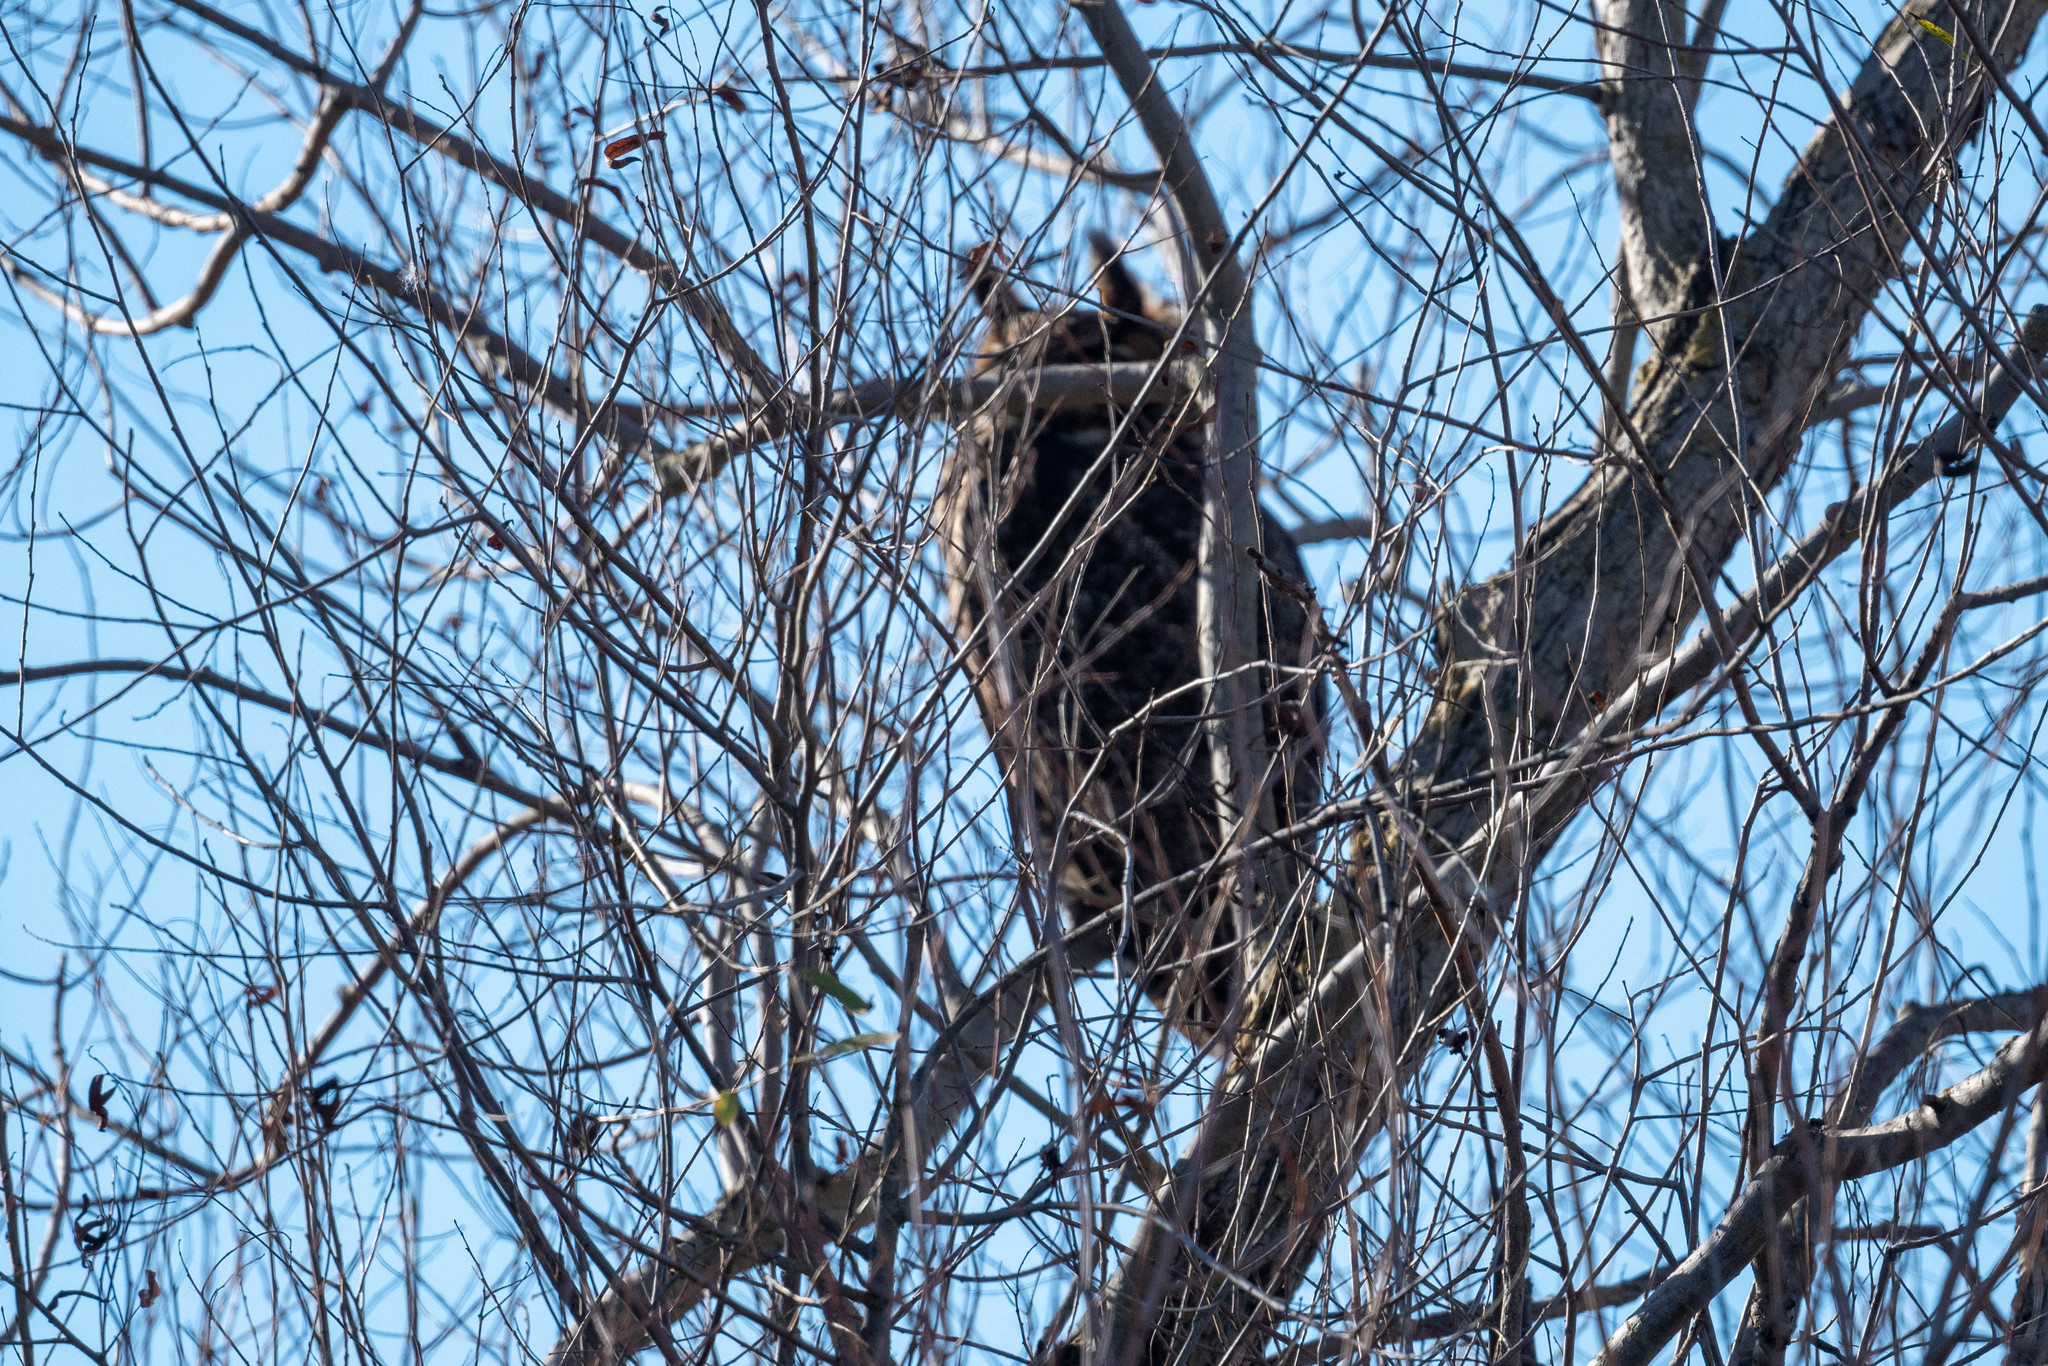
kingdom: Animalia
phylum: Chordata
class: Aves
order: Strigiformes
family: Strigidae
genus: Bubo
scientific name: Bubo virginianus
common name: Great horned owl
